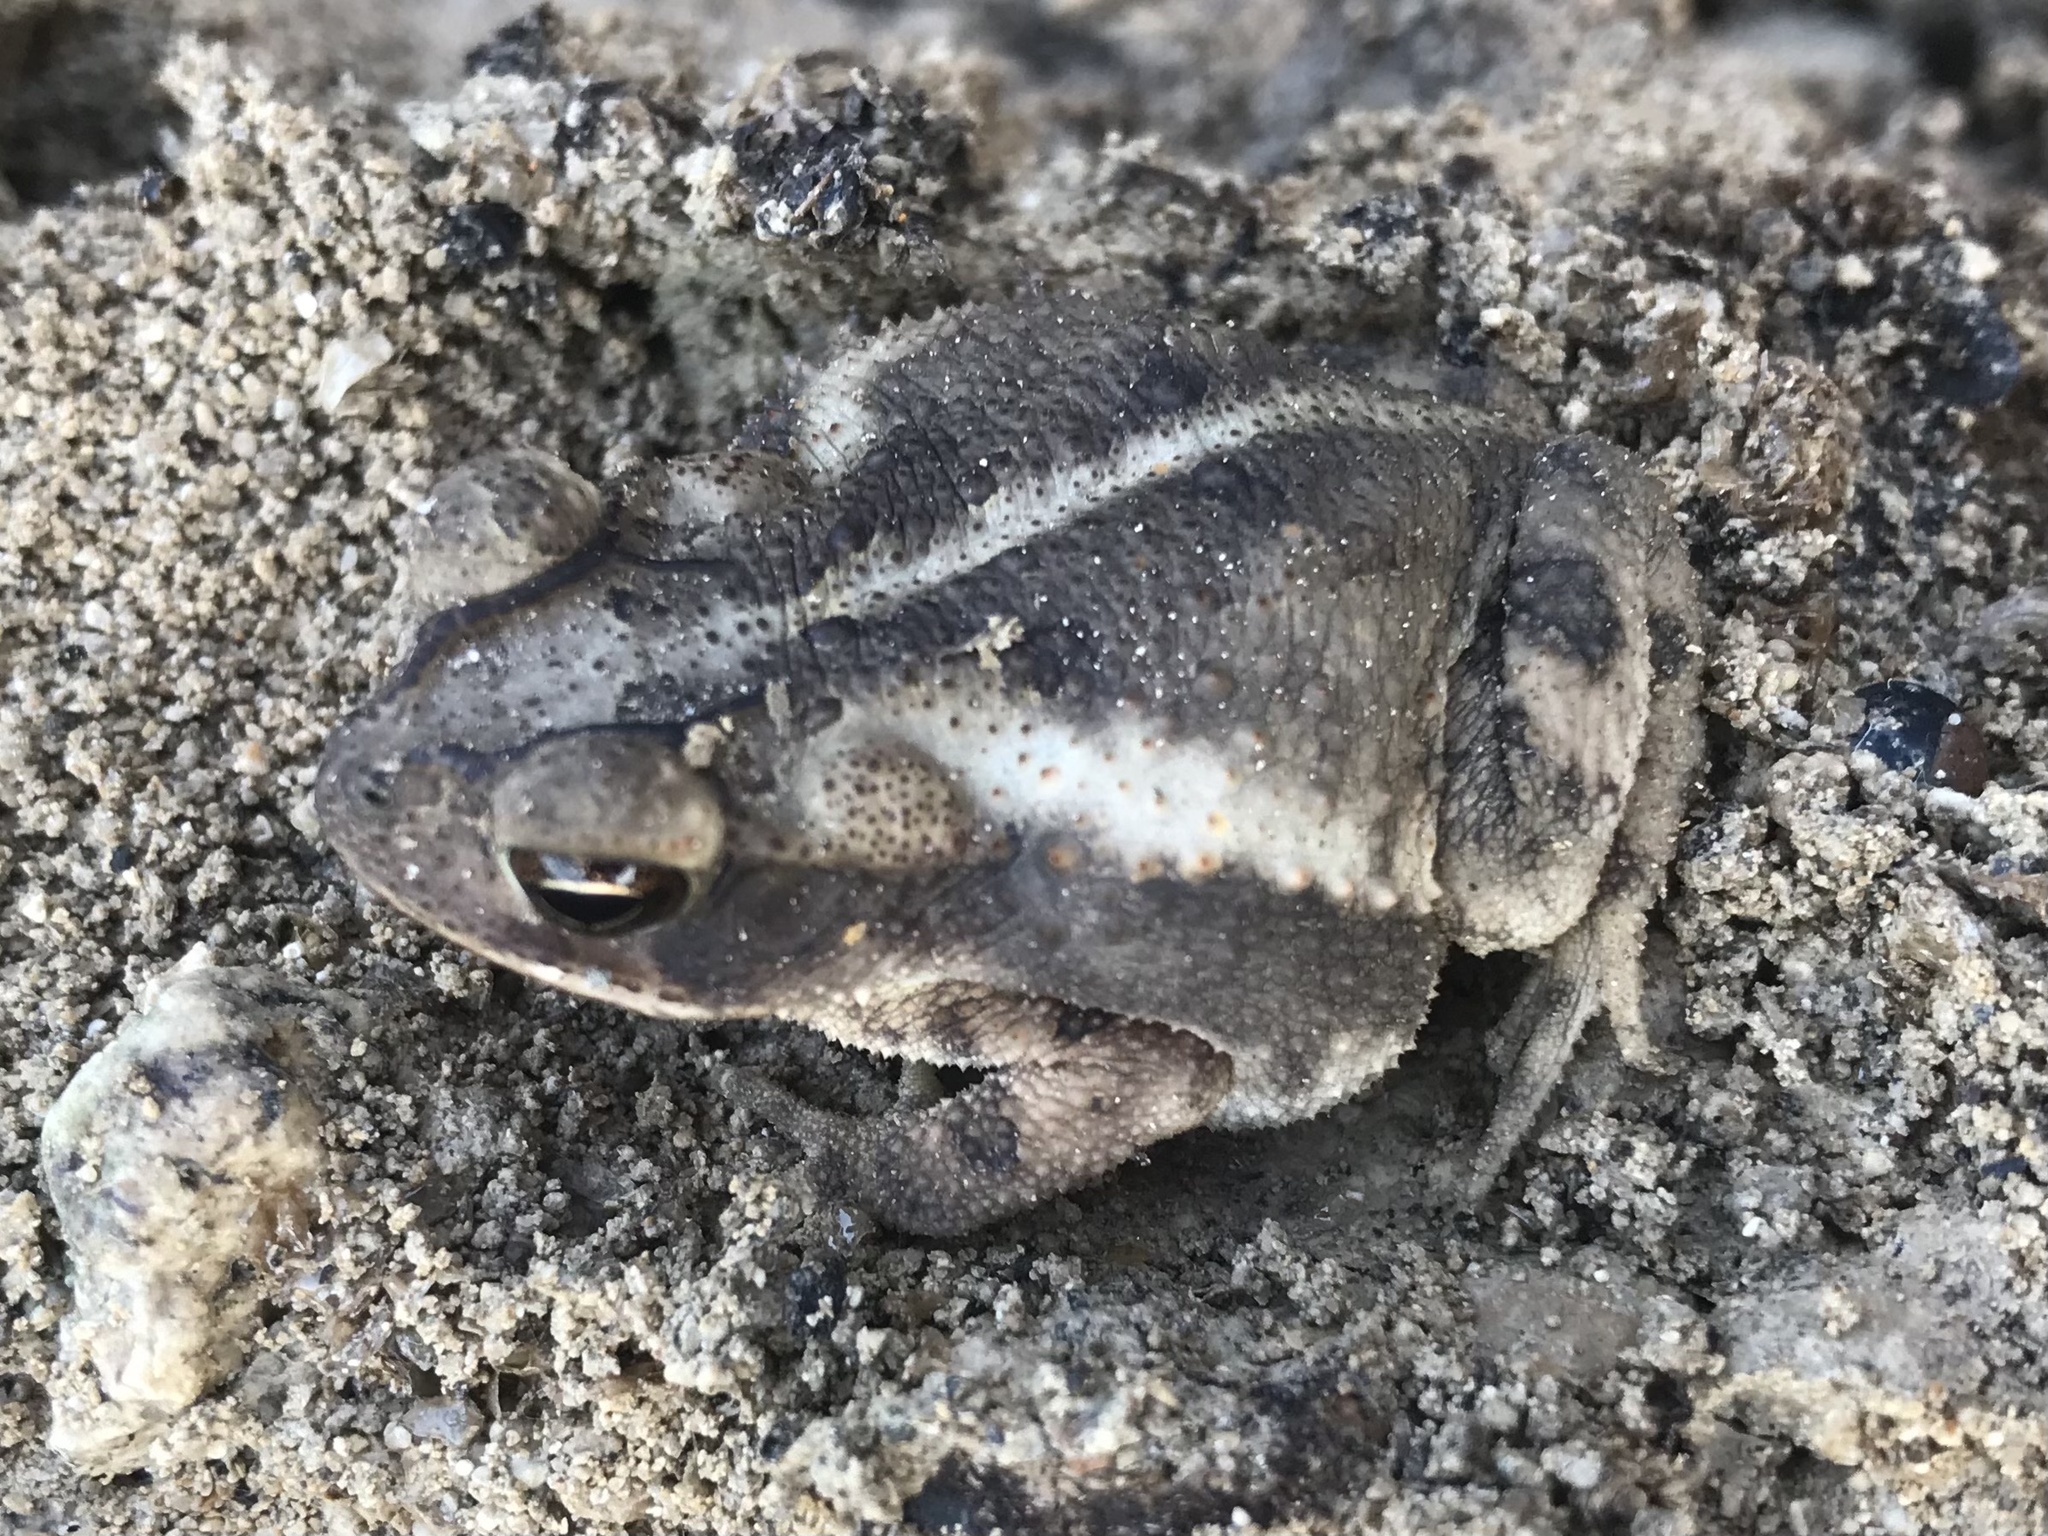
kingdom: Animalia
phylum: Chordata
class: Amphibia
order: Anura
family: Bufonidae
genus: Incilius
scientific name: Incilius nebulifer
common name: Gulf coast toad
